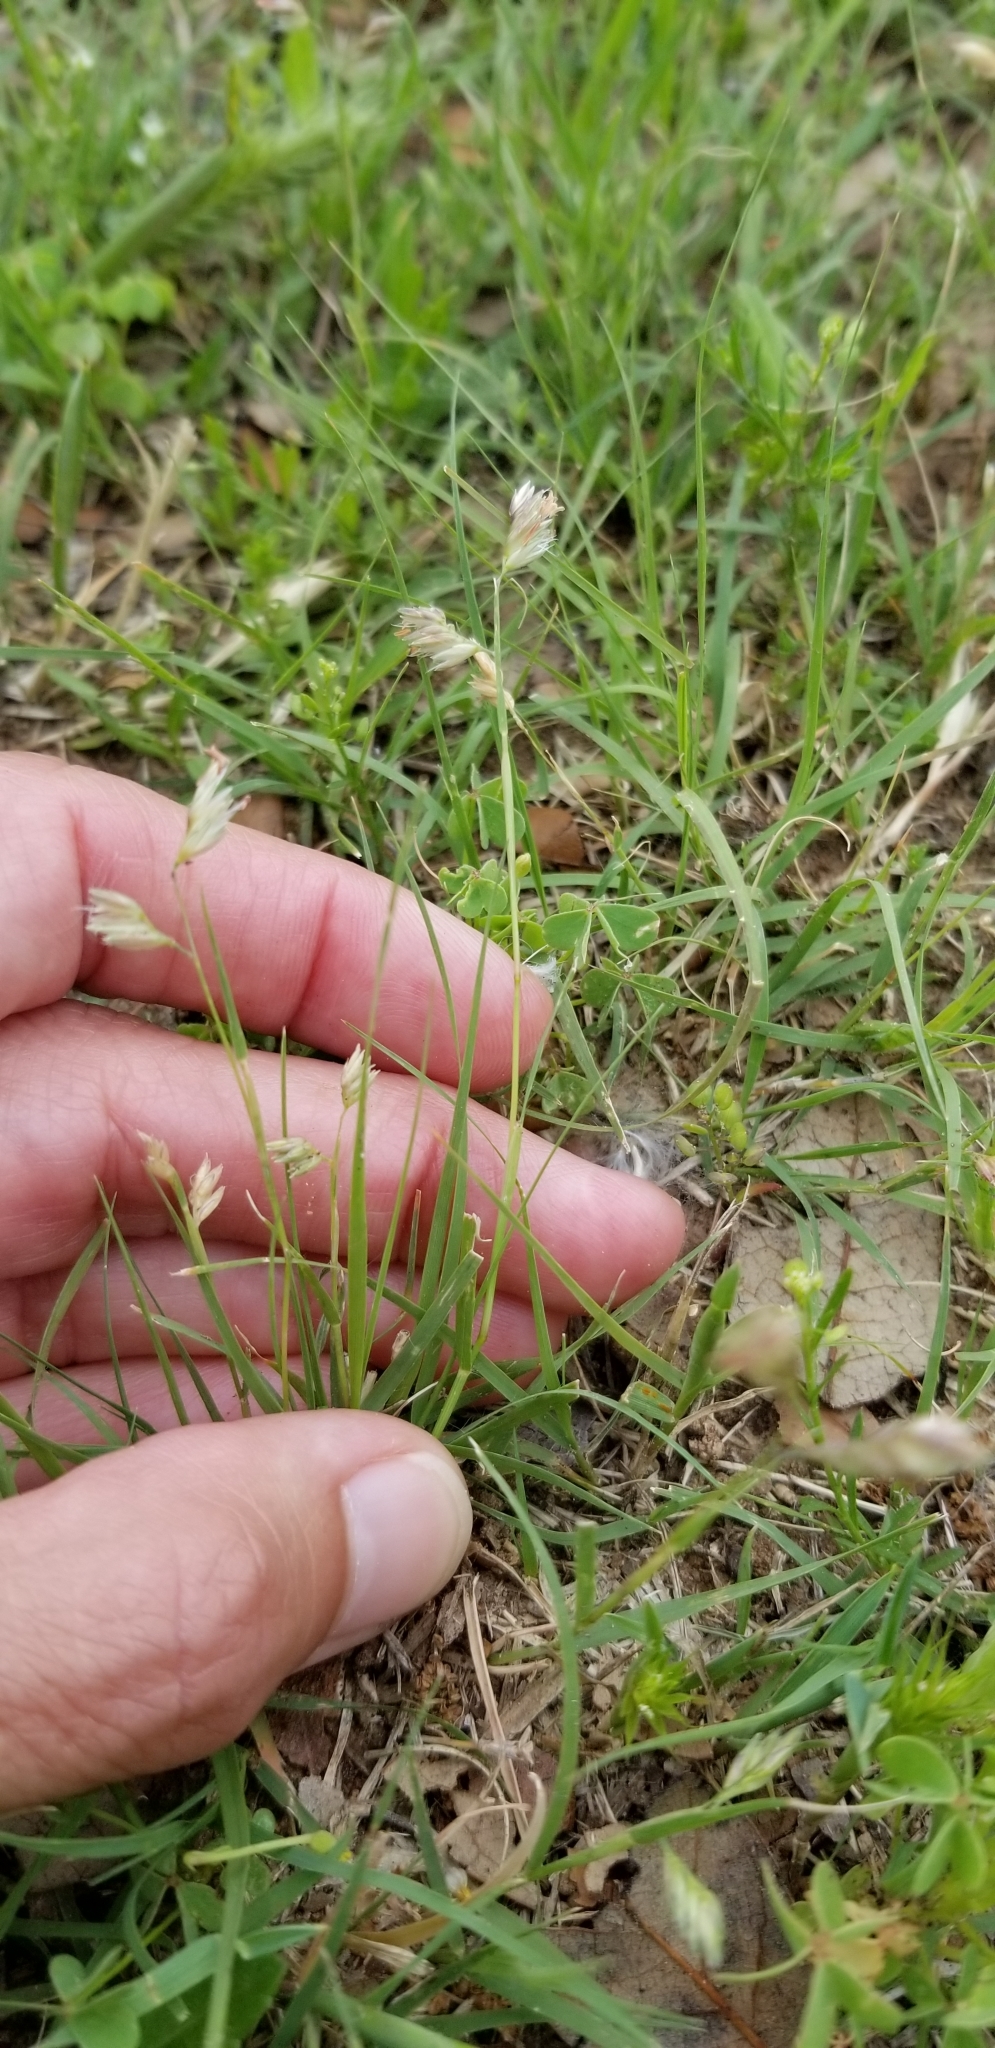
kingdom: Plantae
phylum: Tracheophyta
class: Liliopsida
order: Poales
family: Poaceae
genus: Bouteloua
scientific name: Bouteloua dactyloides
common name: Buffalo grass
